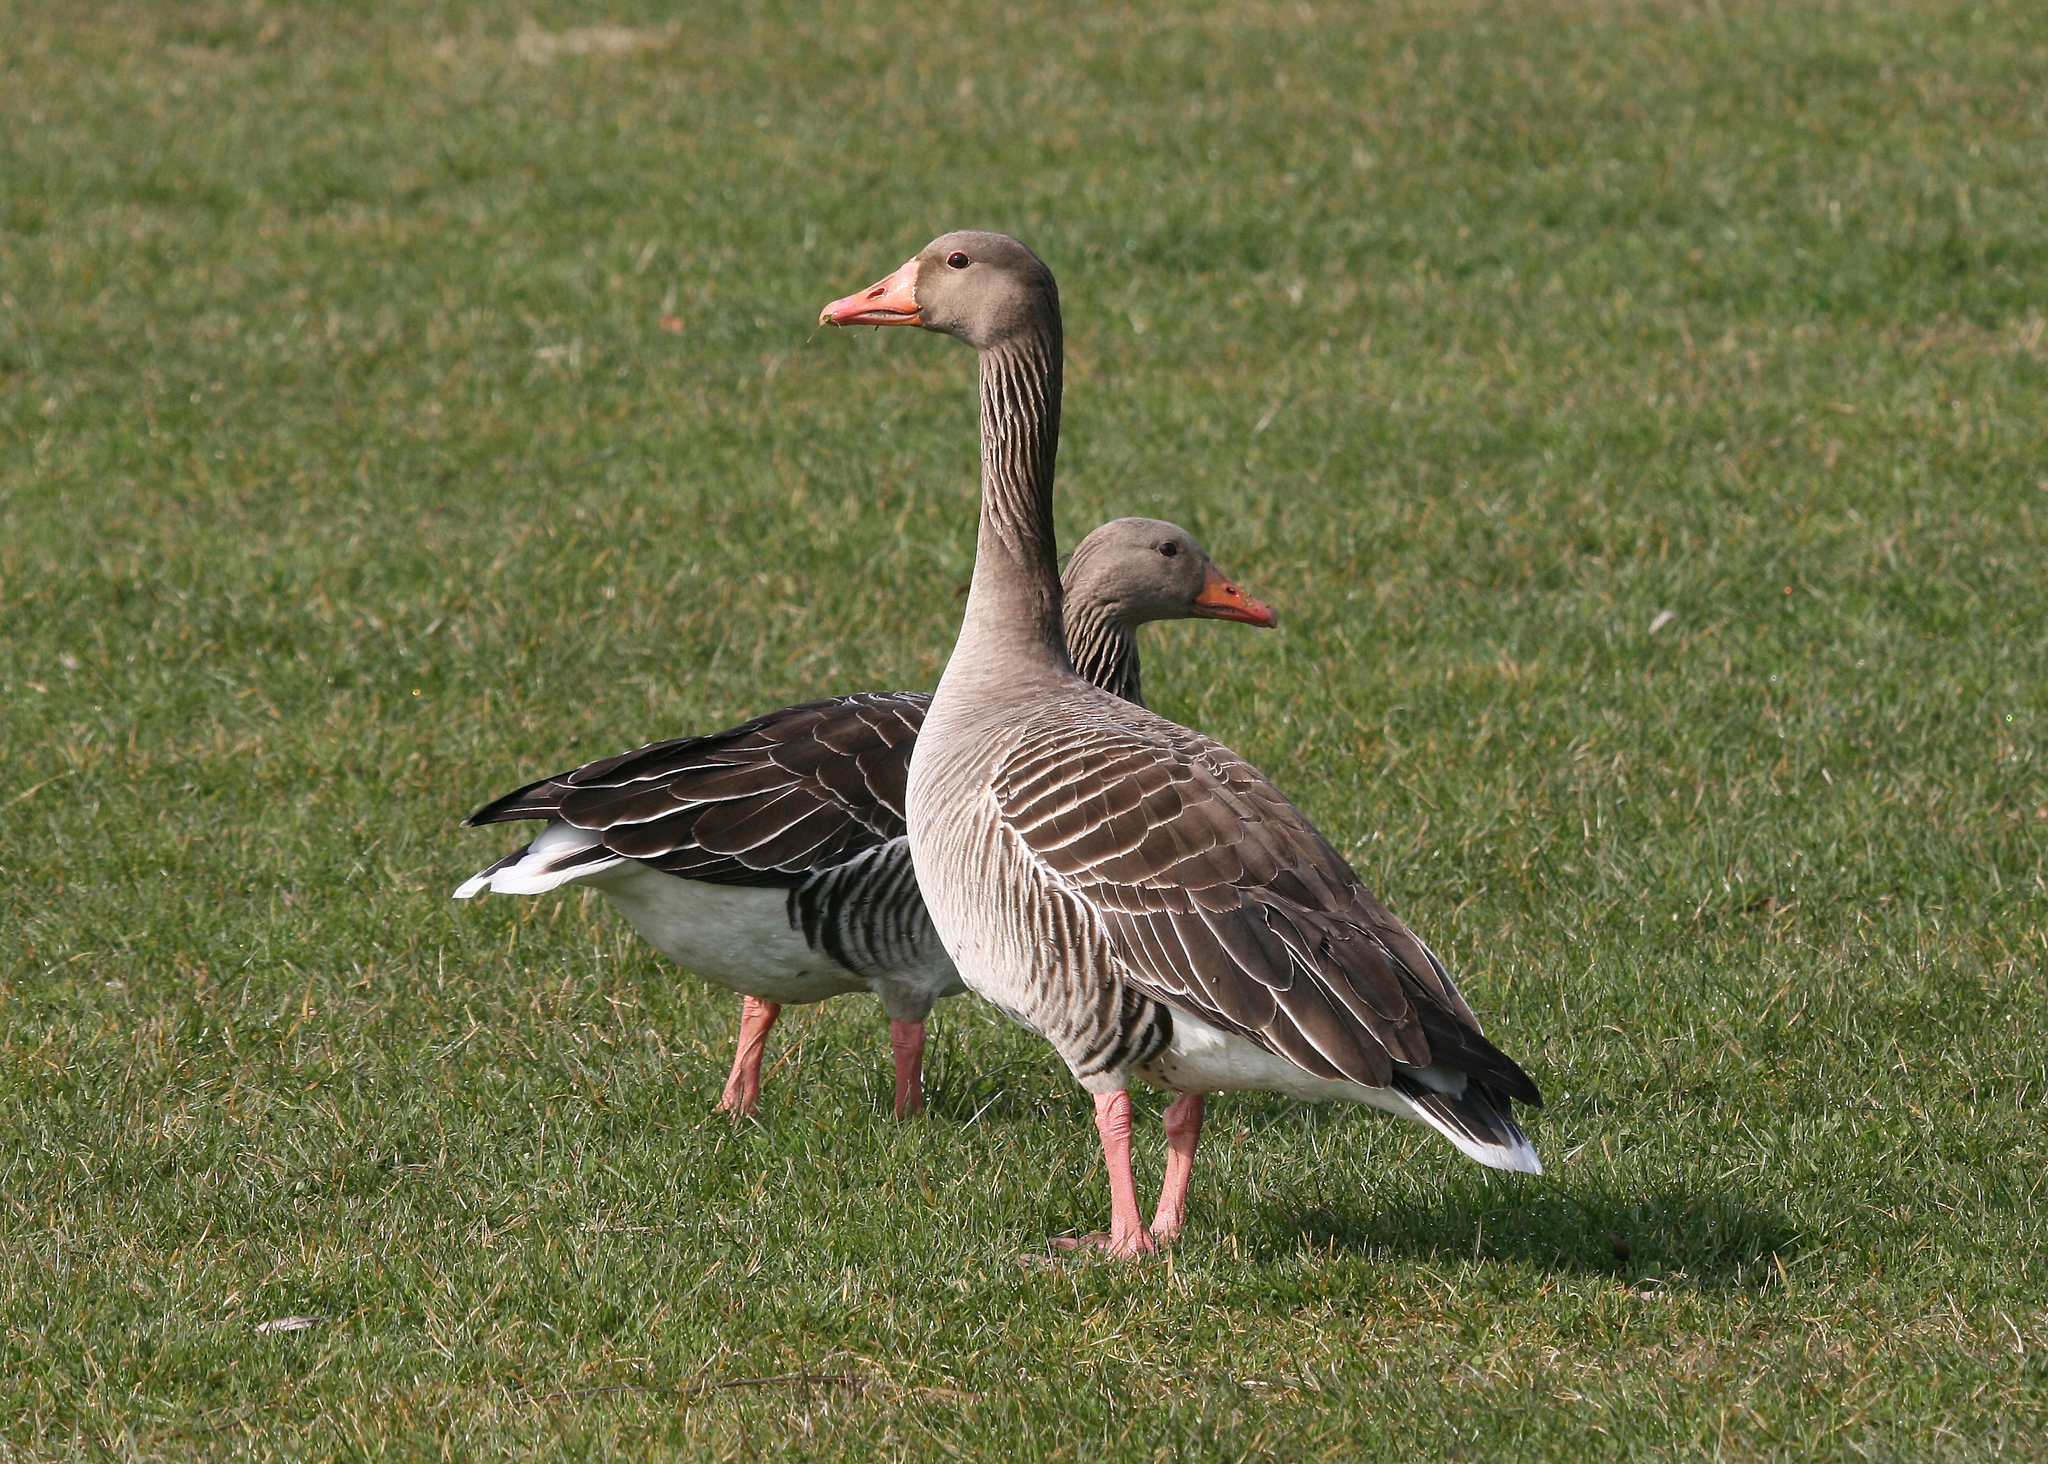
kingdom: Animalia
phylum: Chordata
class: Aves
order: Anseriformes
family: Anatidae
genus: Anser
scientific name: Anser anser
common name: Greylag goose
